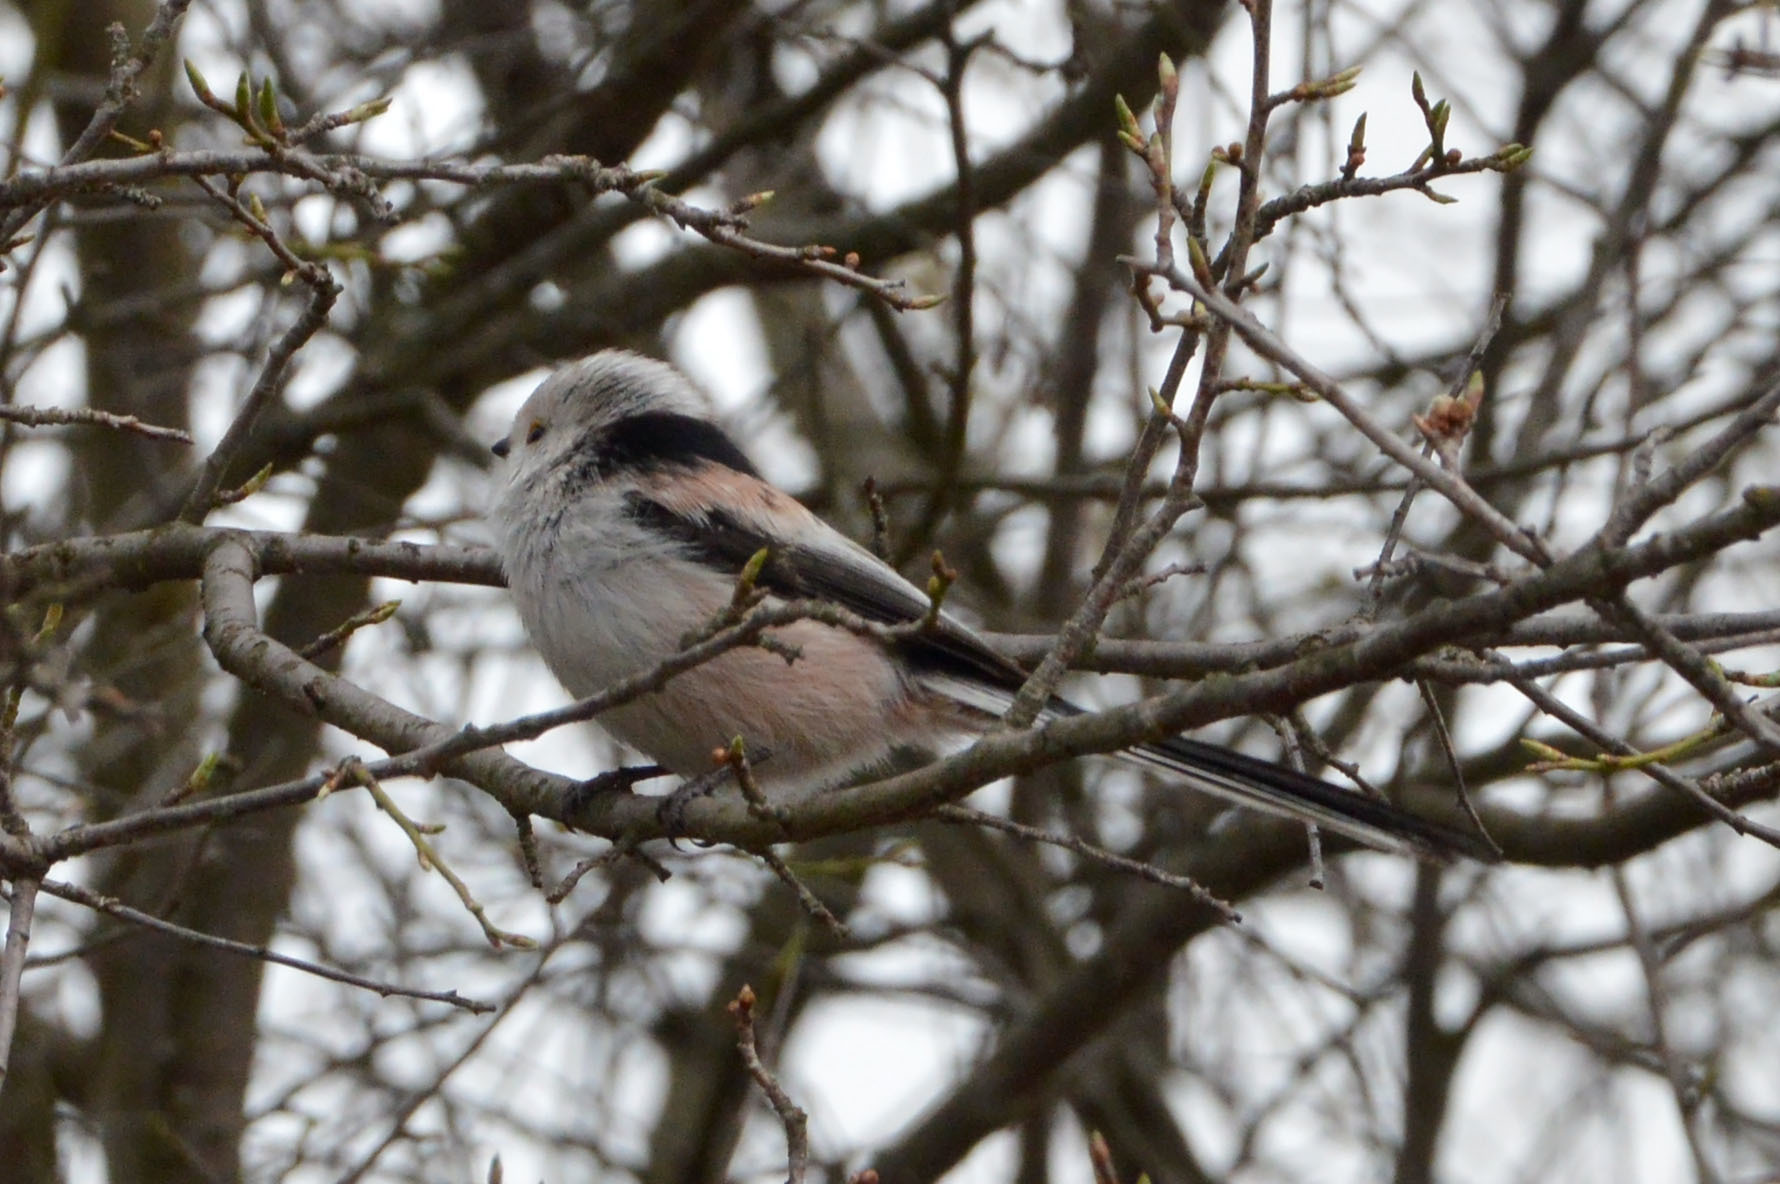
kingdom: Animalia
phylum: Chordata
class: Aves
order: Passeriformes
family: Aegithalidae
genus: Aegithalos
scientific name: Aegithalos caudatus
